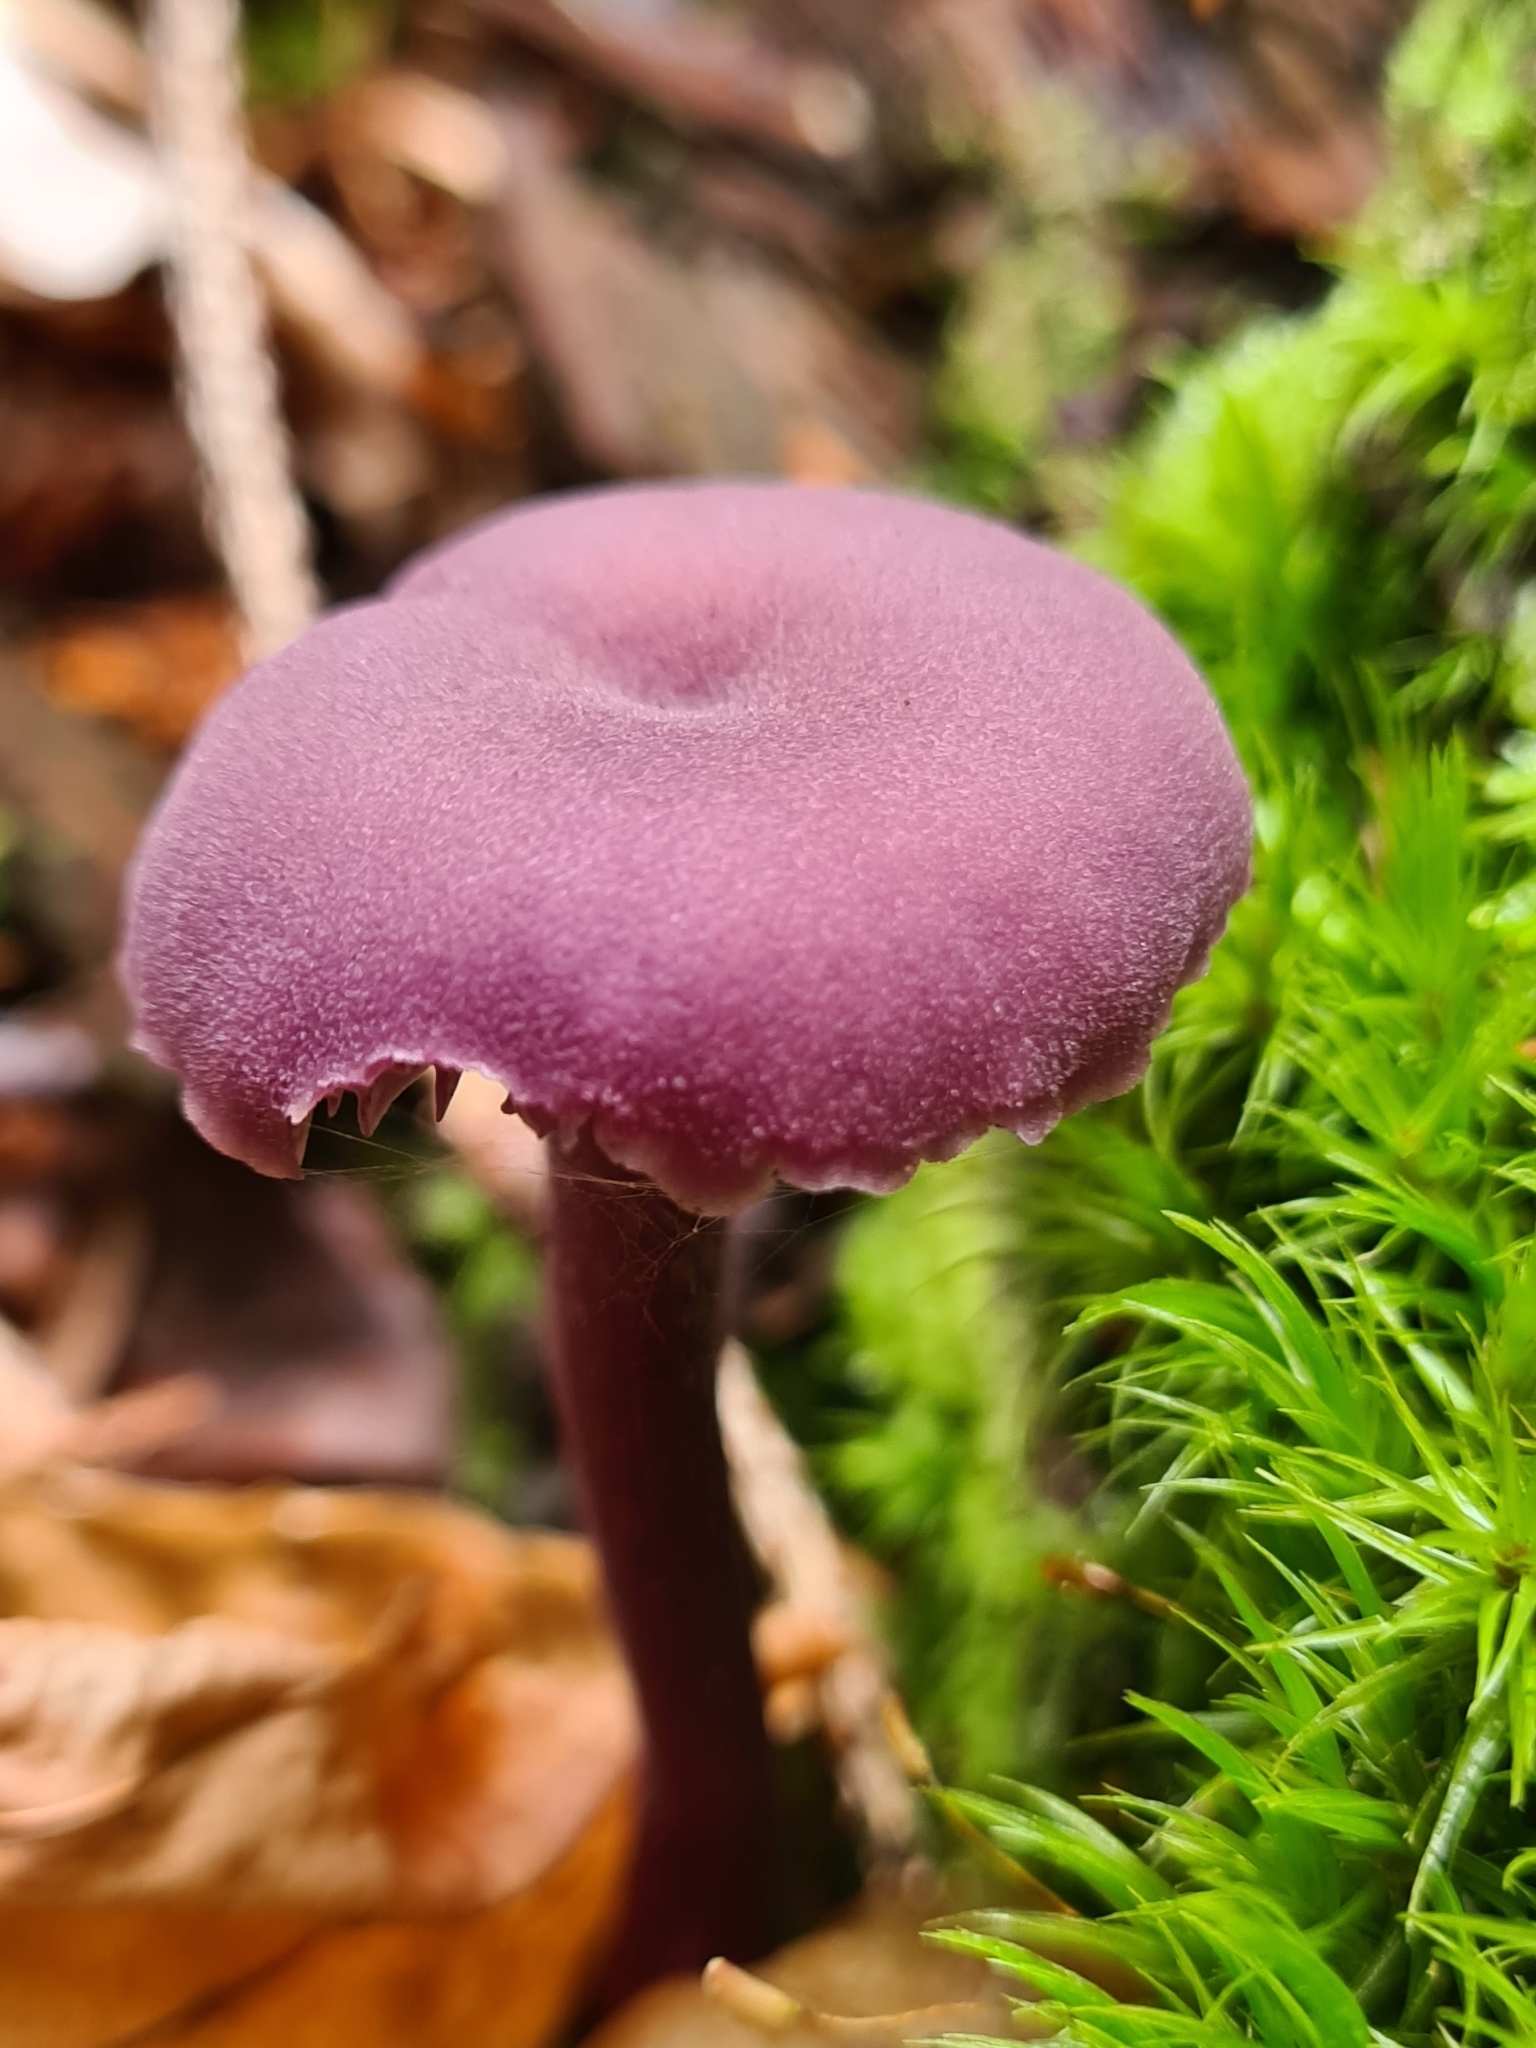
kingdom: Fungi
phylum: Basidiomycota
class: Agaricomycetes
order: Agaricales
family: Hydnangiaceae
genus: Laccaria
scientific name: Laccaria amethystina
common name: Amethyst deceiver
